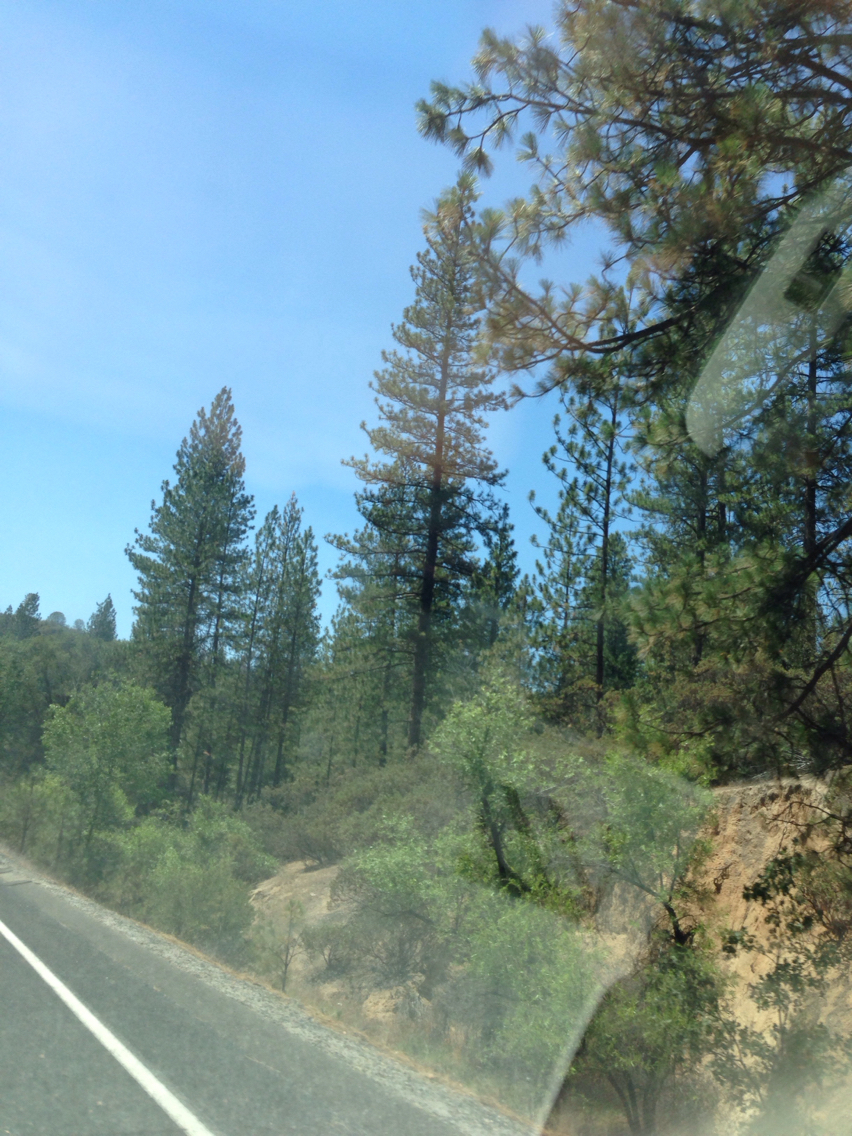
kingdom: Plantae
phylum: Tracheophyta
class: Pinopsida
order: Pinales
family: Pinaceae
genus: Pinus
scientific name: Pinus ponderosa
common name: Western yellow-pine
